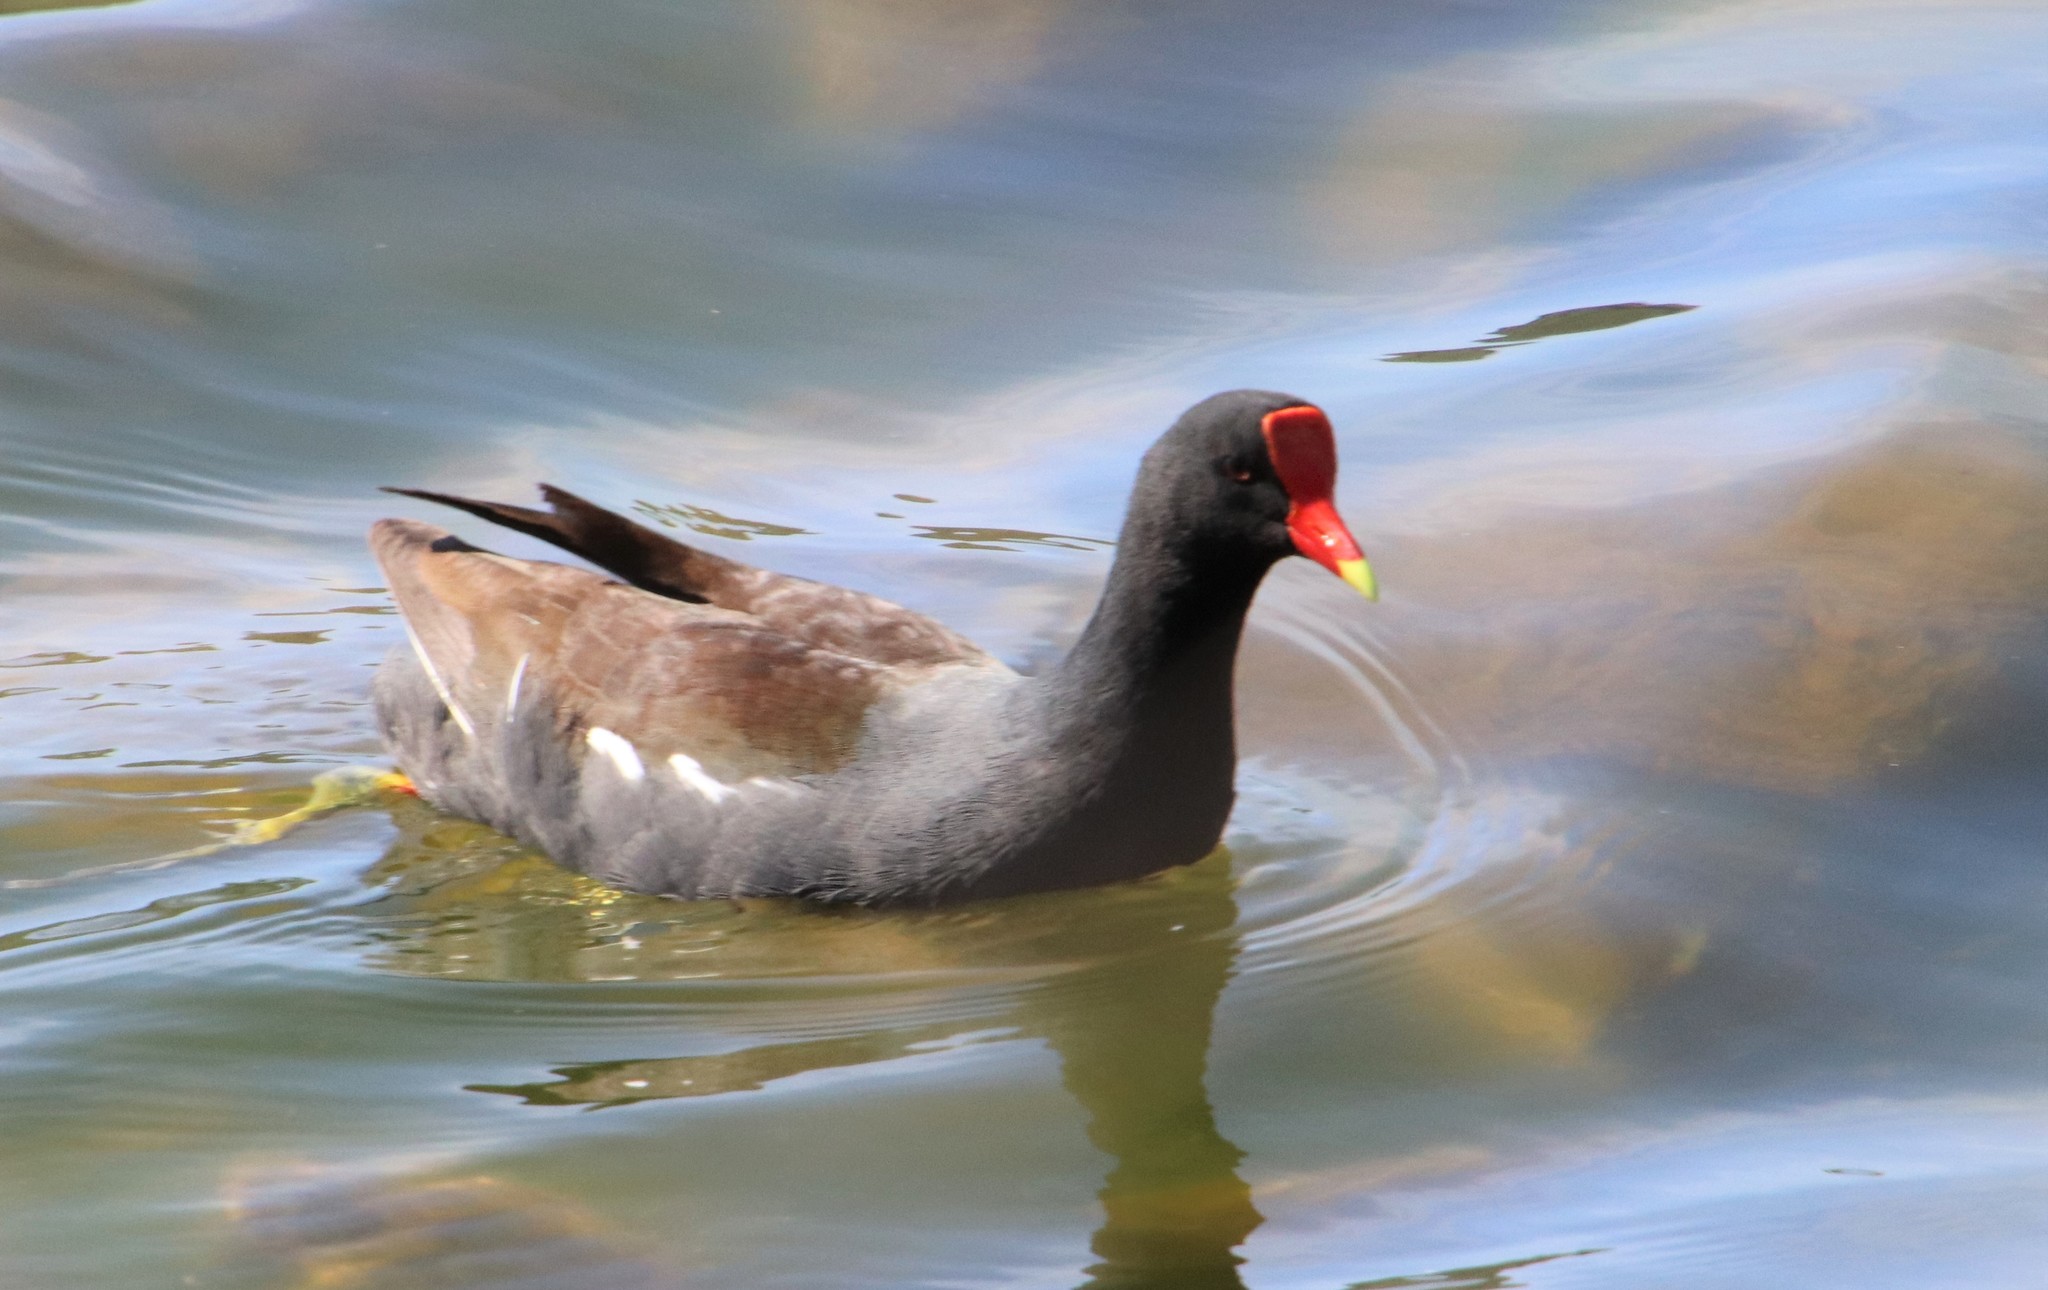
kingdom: Animalia
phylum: Chordata
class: Aves
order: Gruiformes
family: Rallidae
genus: Gallinula
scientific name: Gallinula chloropus
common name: Common moorhen
